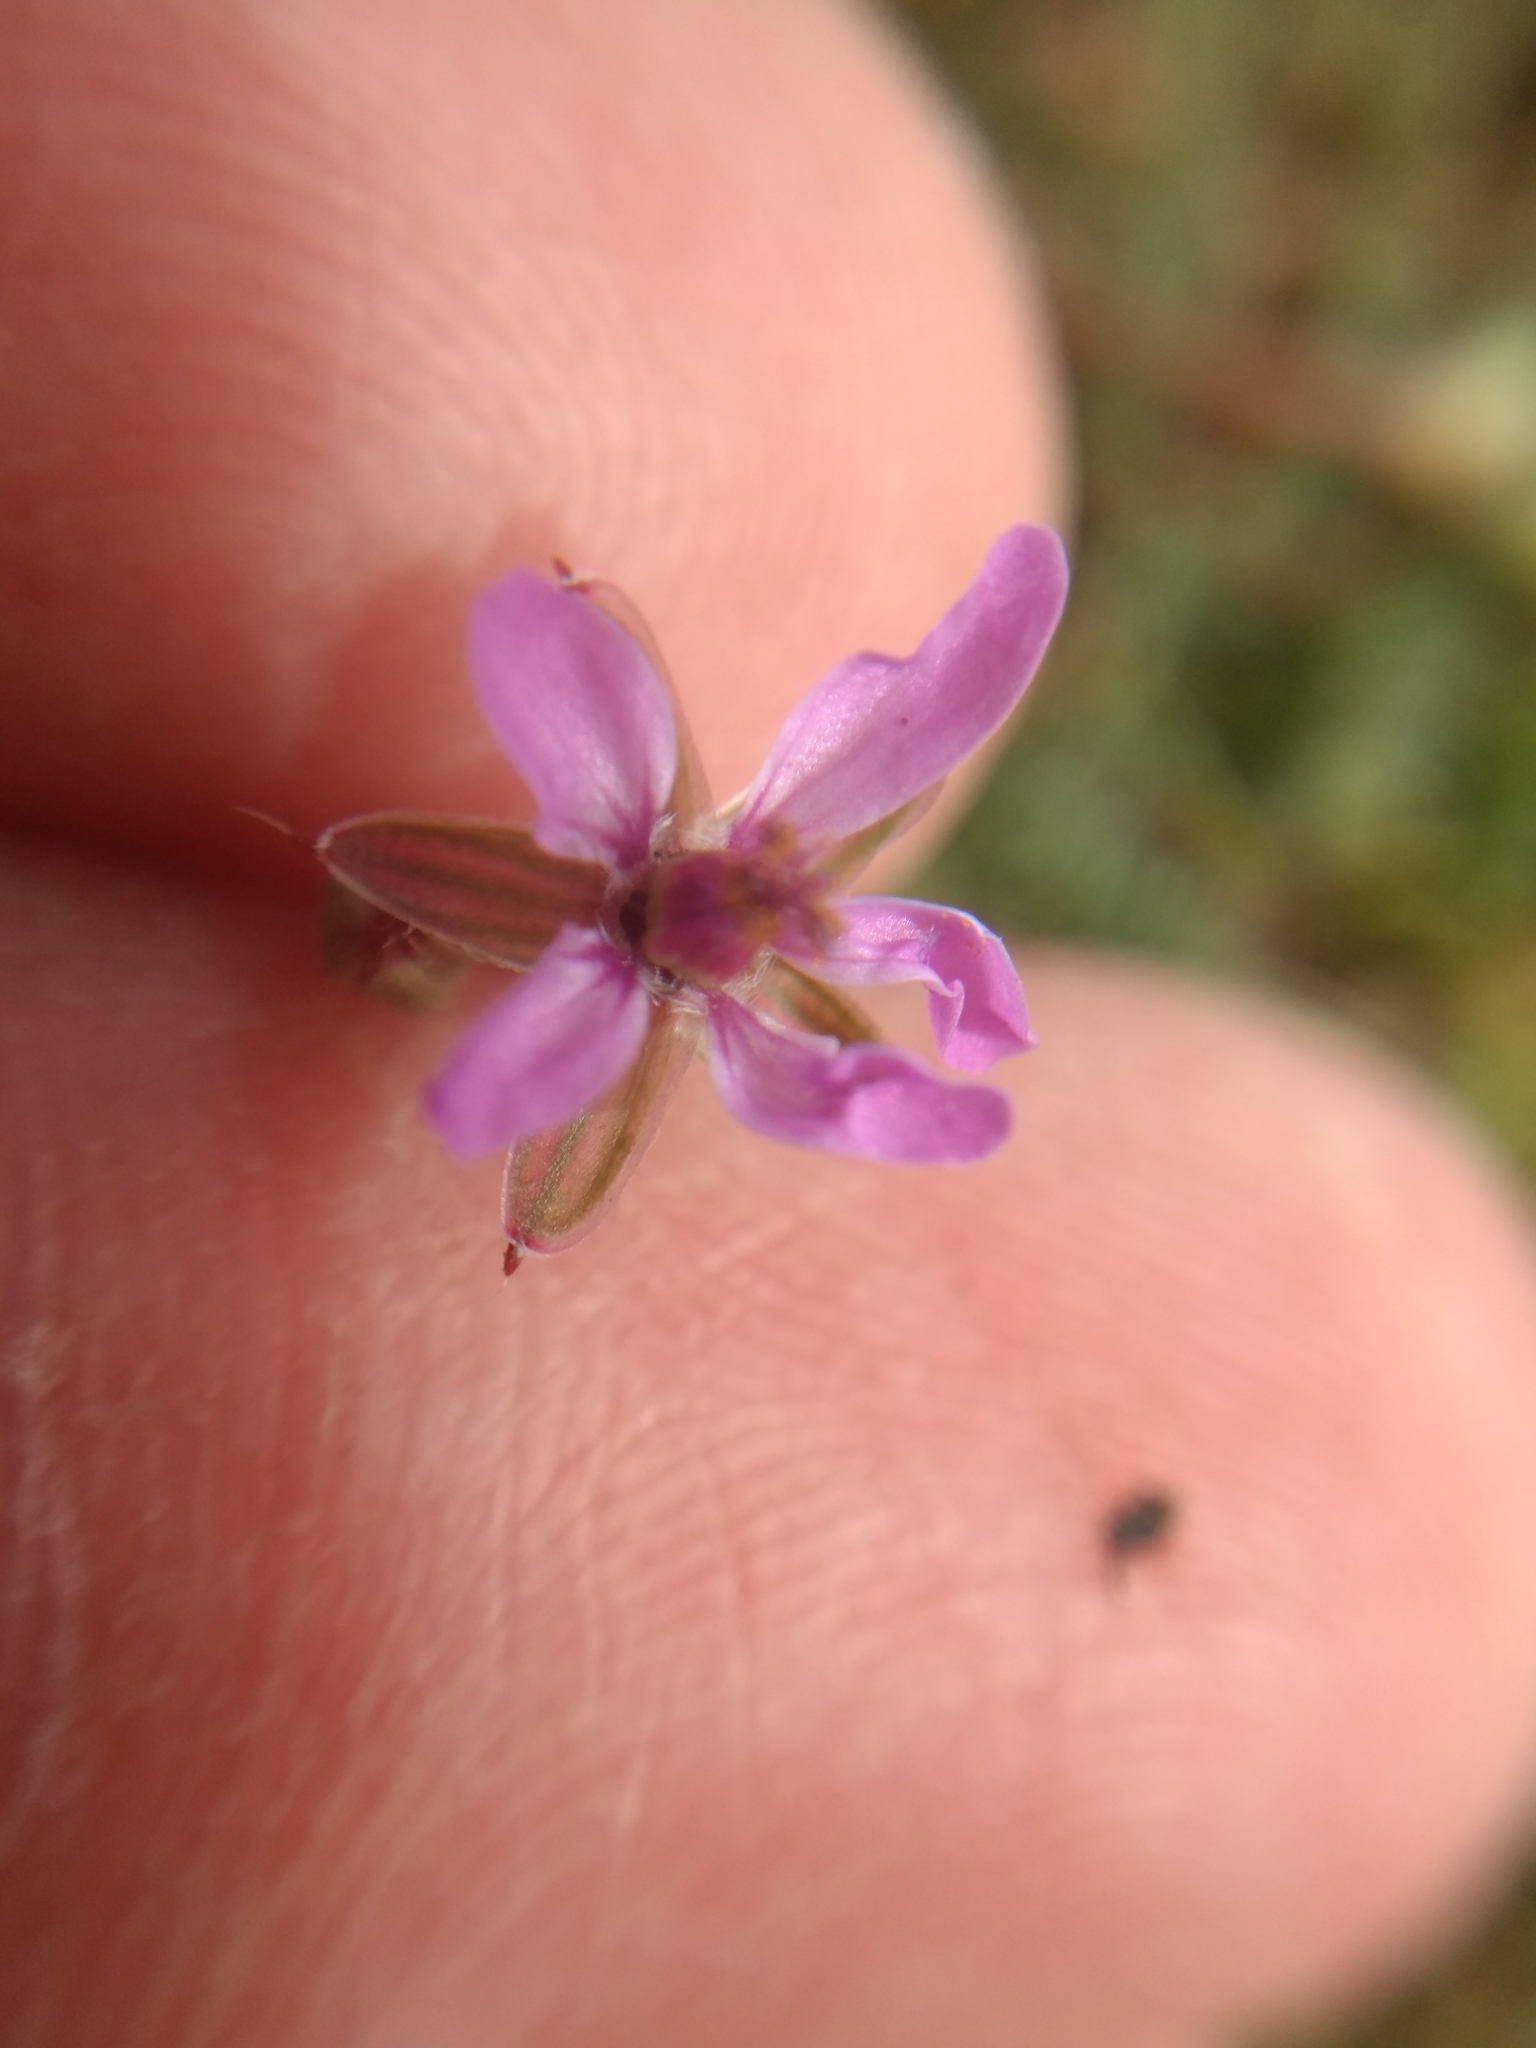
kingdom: Plantae
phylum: Tracheophyta
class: Magnoliopsida
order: Geraniales
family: Geraniaceae
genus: Erodium
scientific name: Erodium cicutarium
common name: Common stork's-bill
